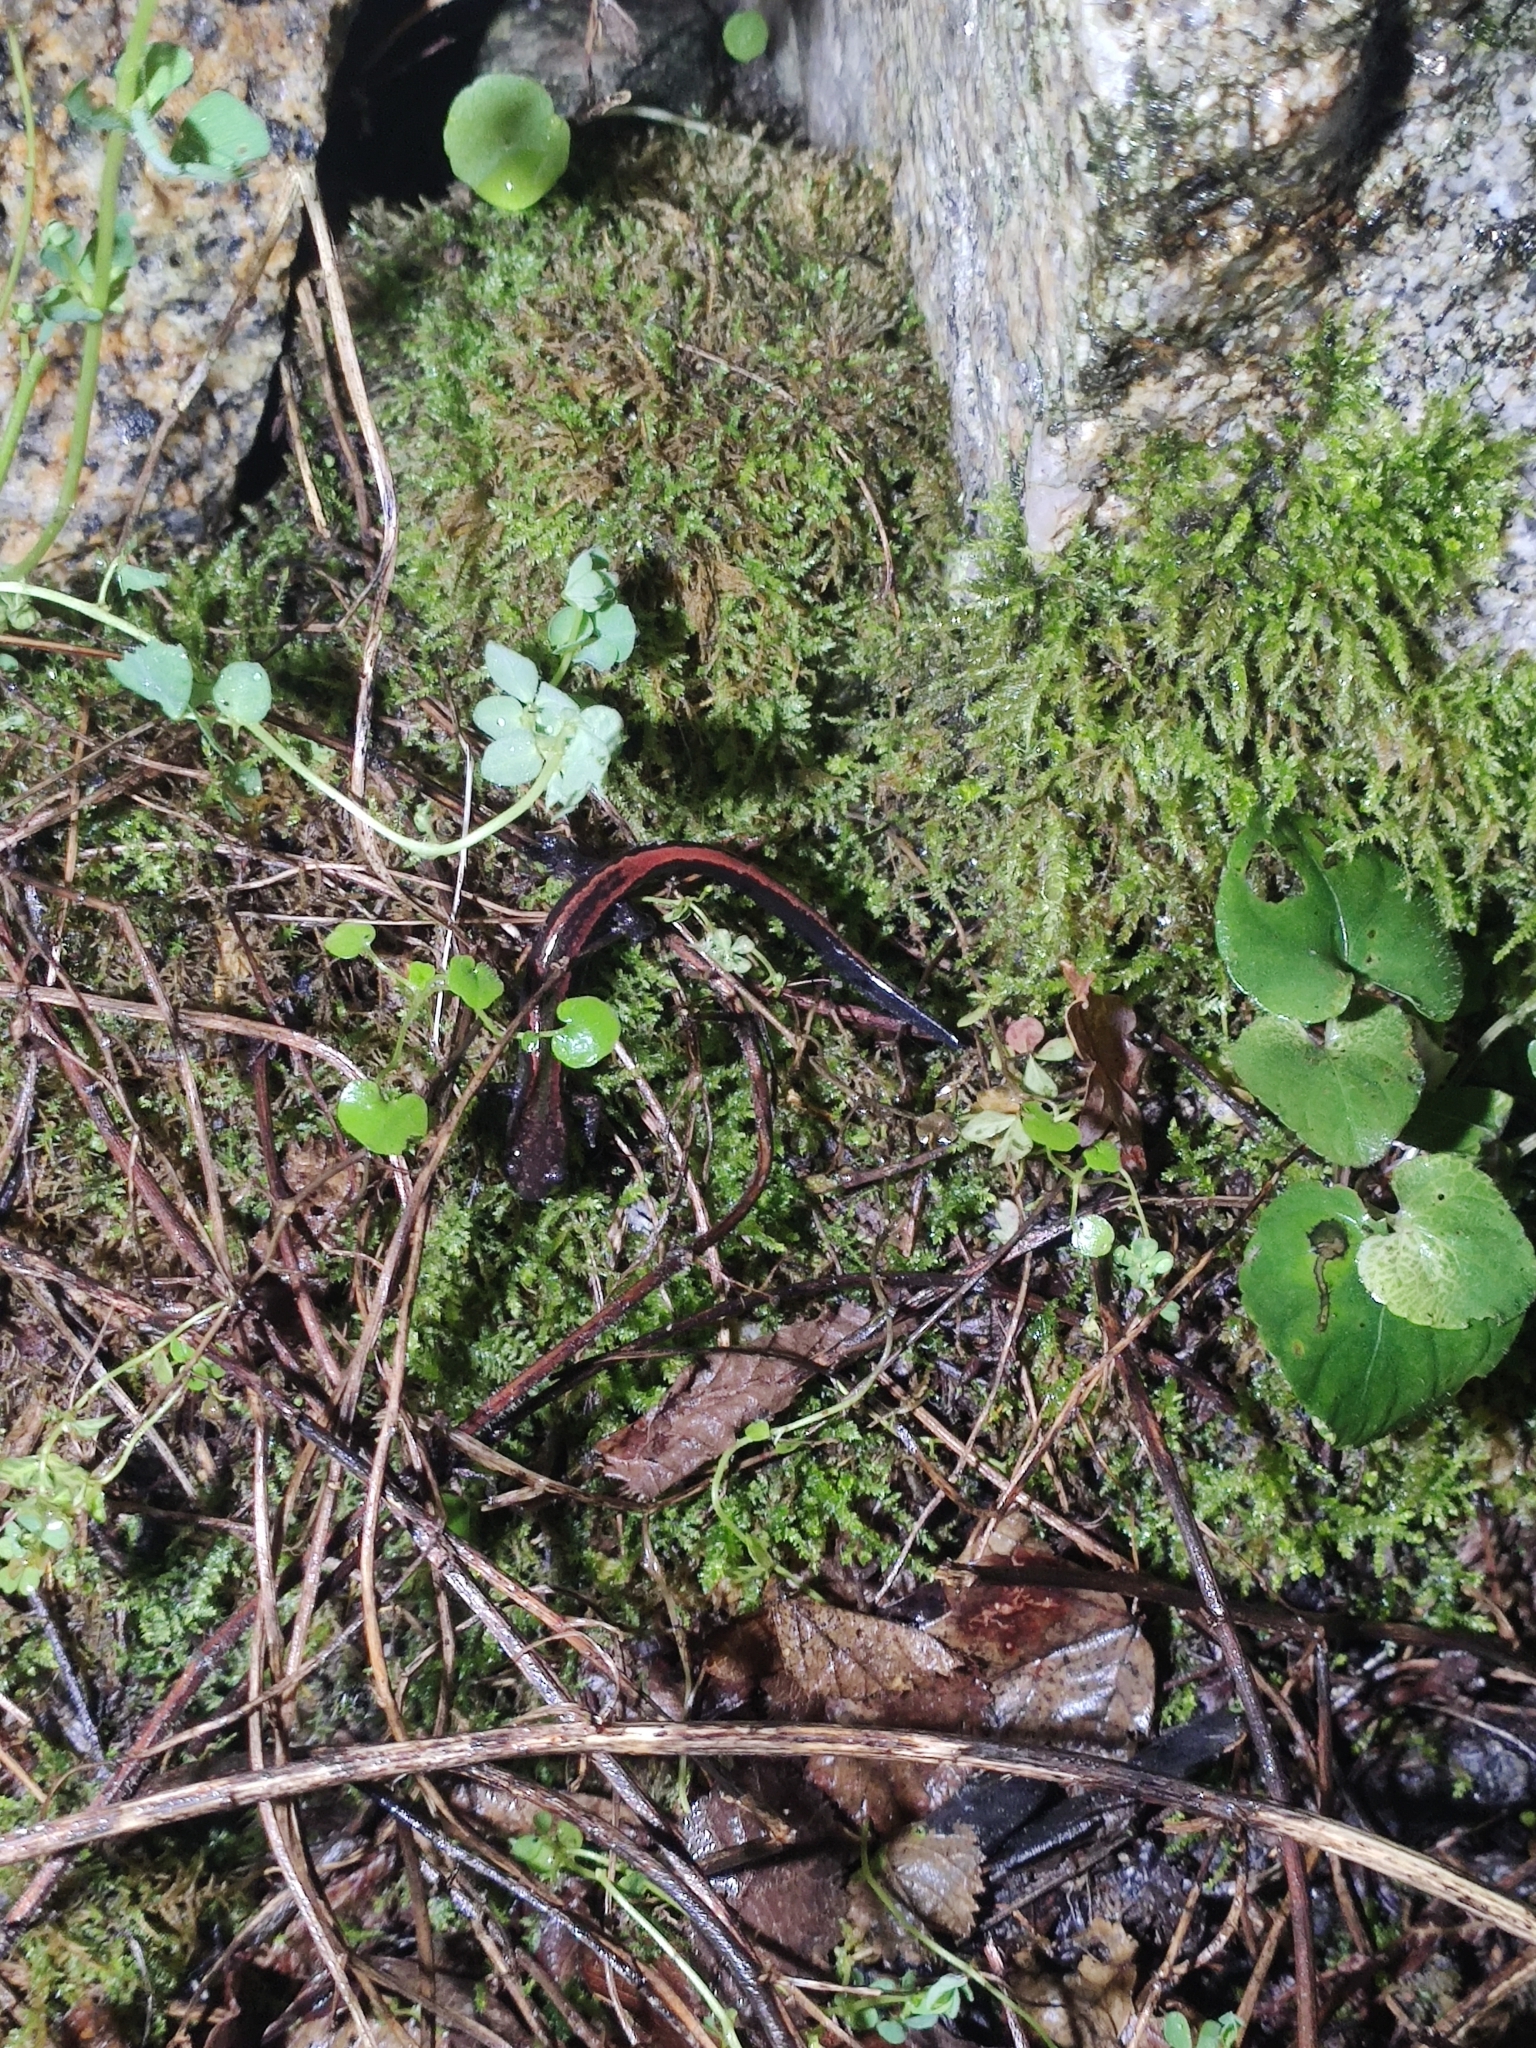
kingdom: Animalia
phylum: Chordata
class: Amphibia
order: Caudata
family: Salamandridae
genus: Chioglossa
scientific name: Chioglossa lusitanica
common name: Gold-striped salamander
